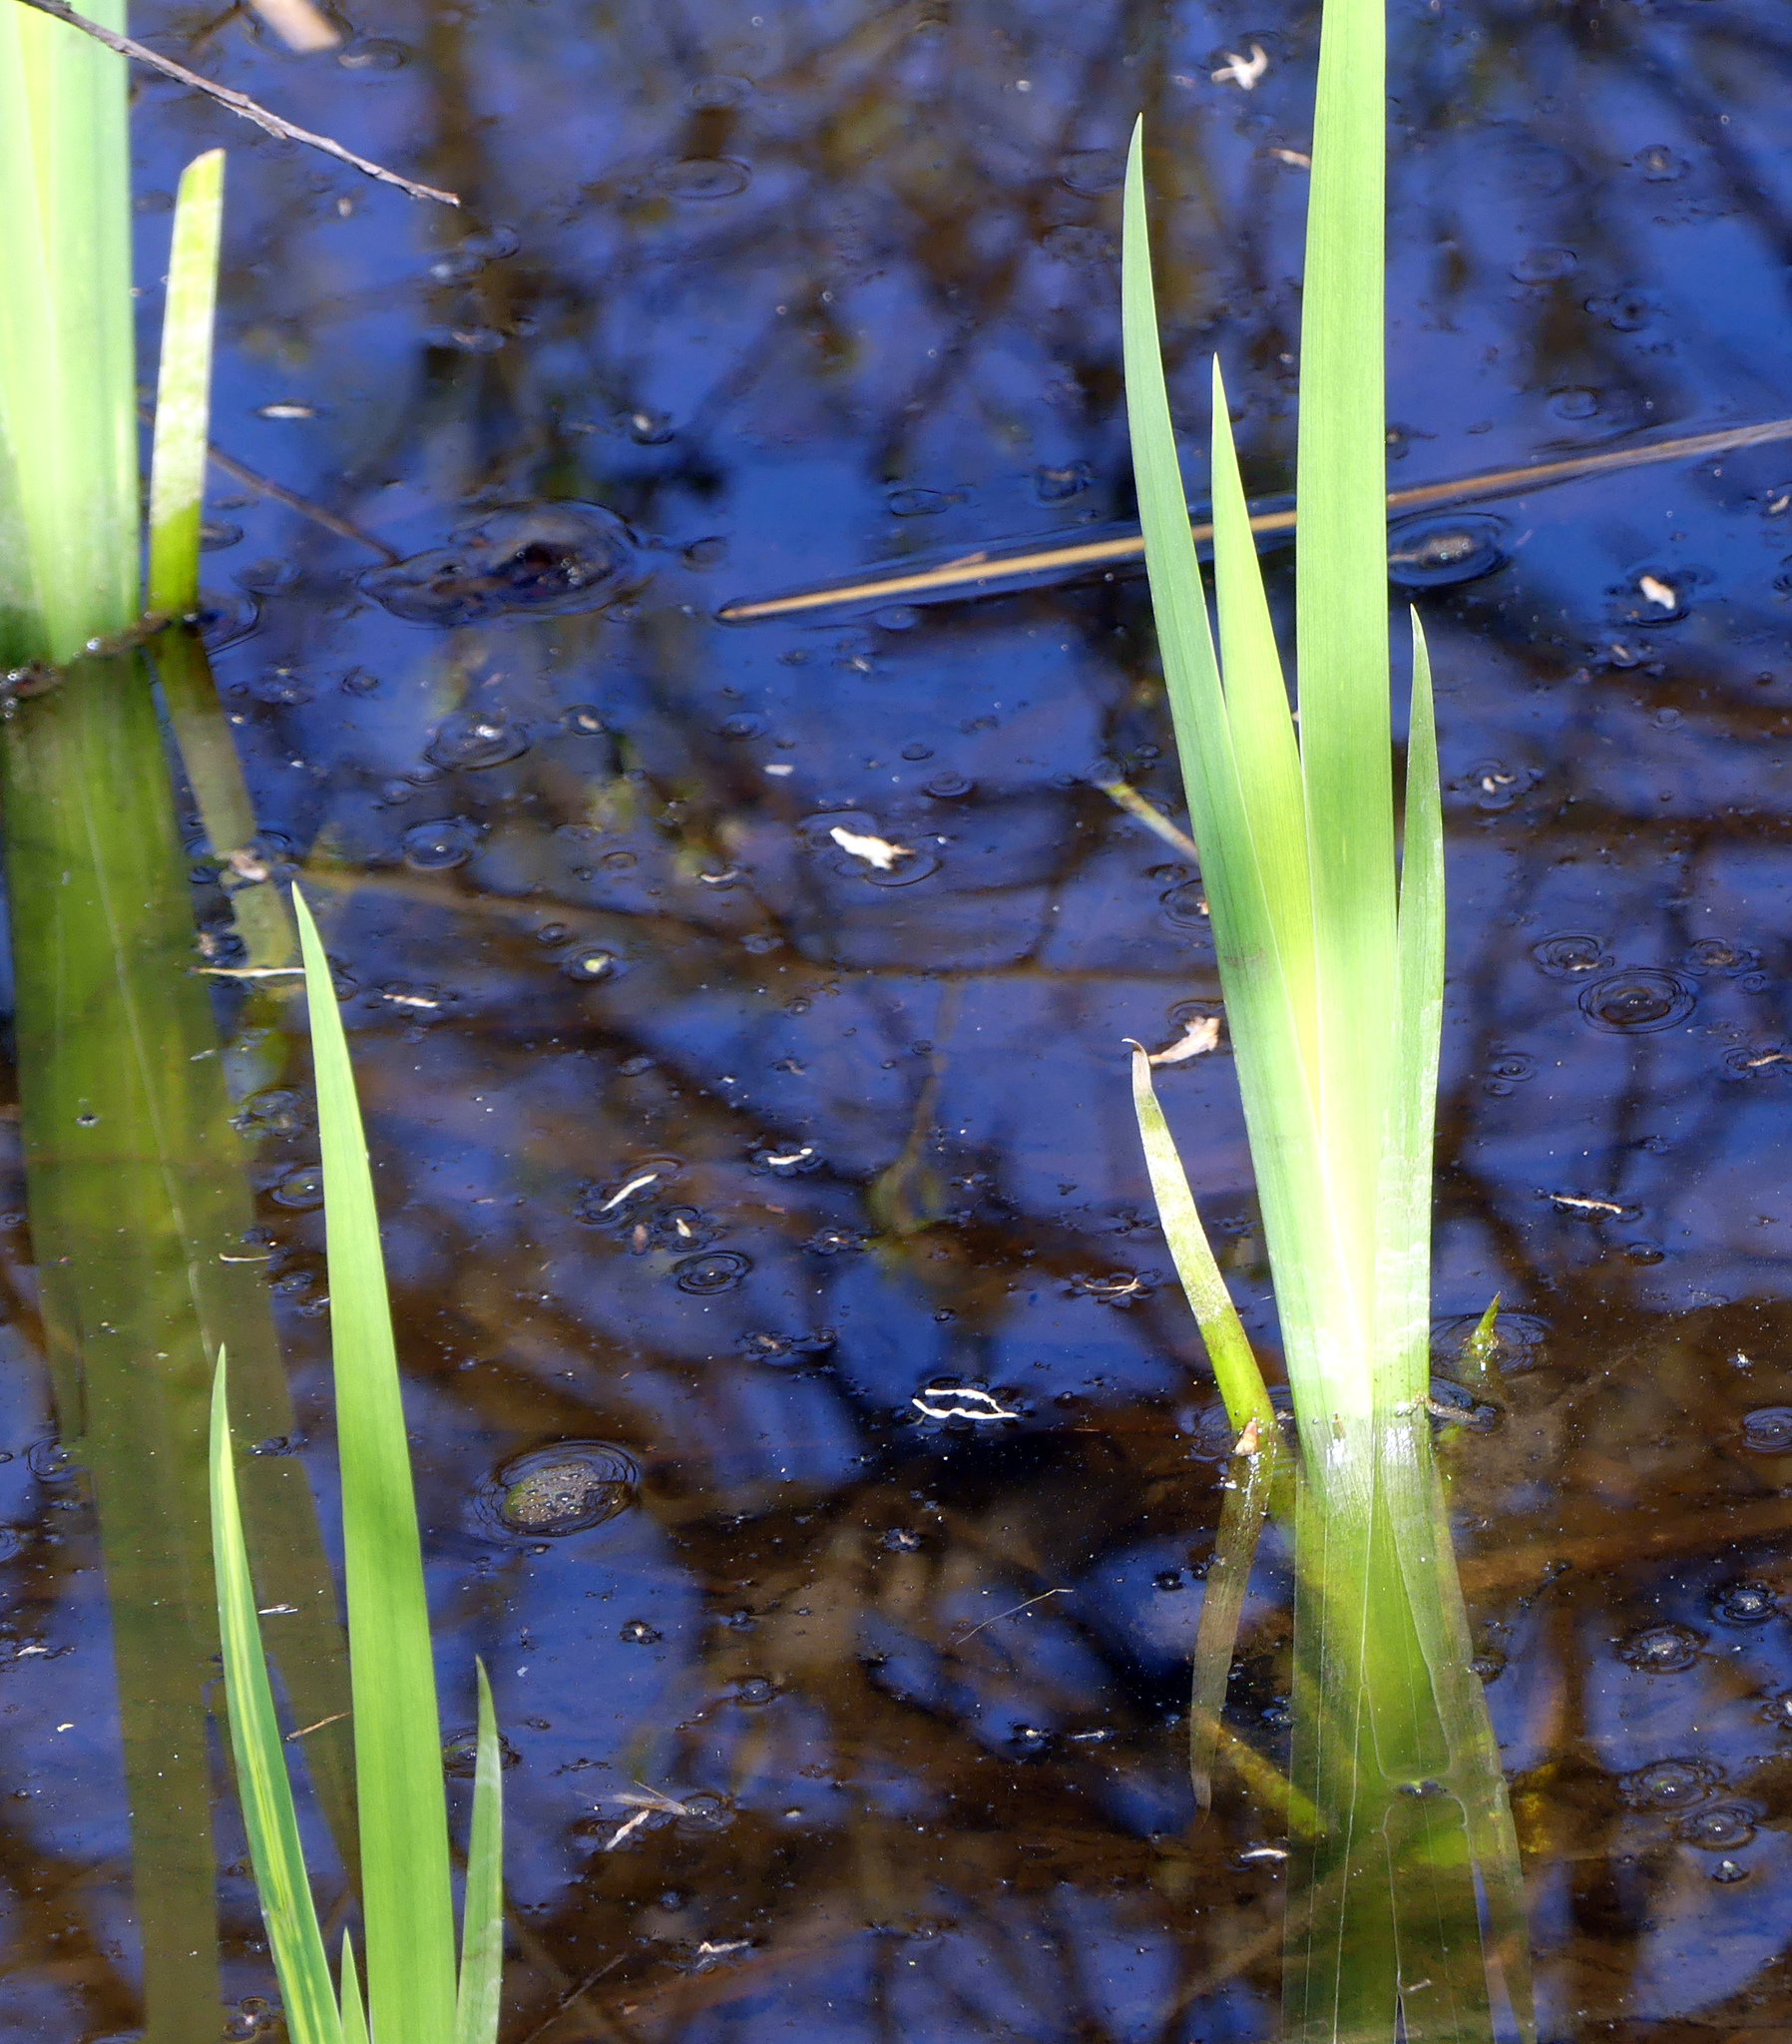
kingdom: Plantae
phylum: Tracheophyta
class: Liliopsida
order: Asparagales
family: Iridaceae
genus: Iris
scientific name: Iris pseudacorus
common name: Yellow flag
